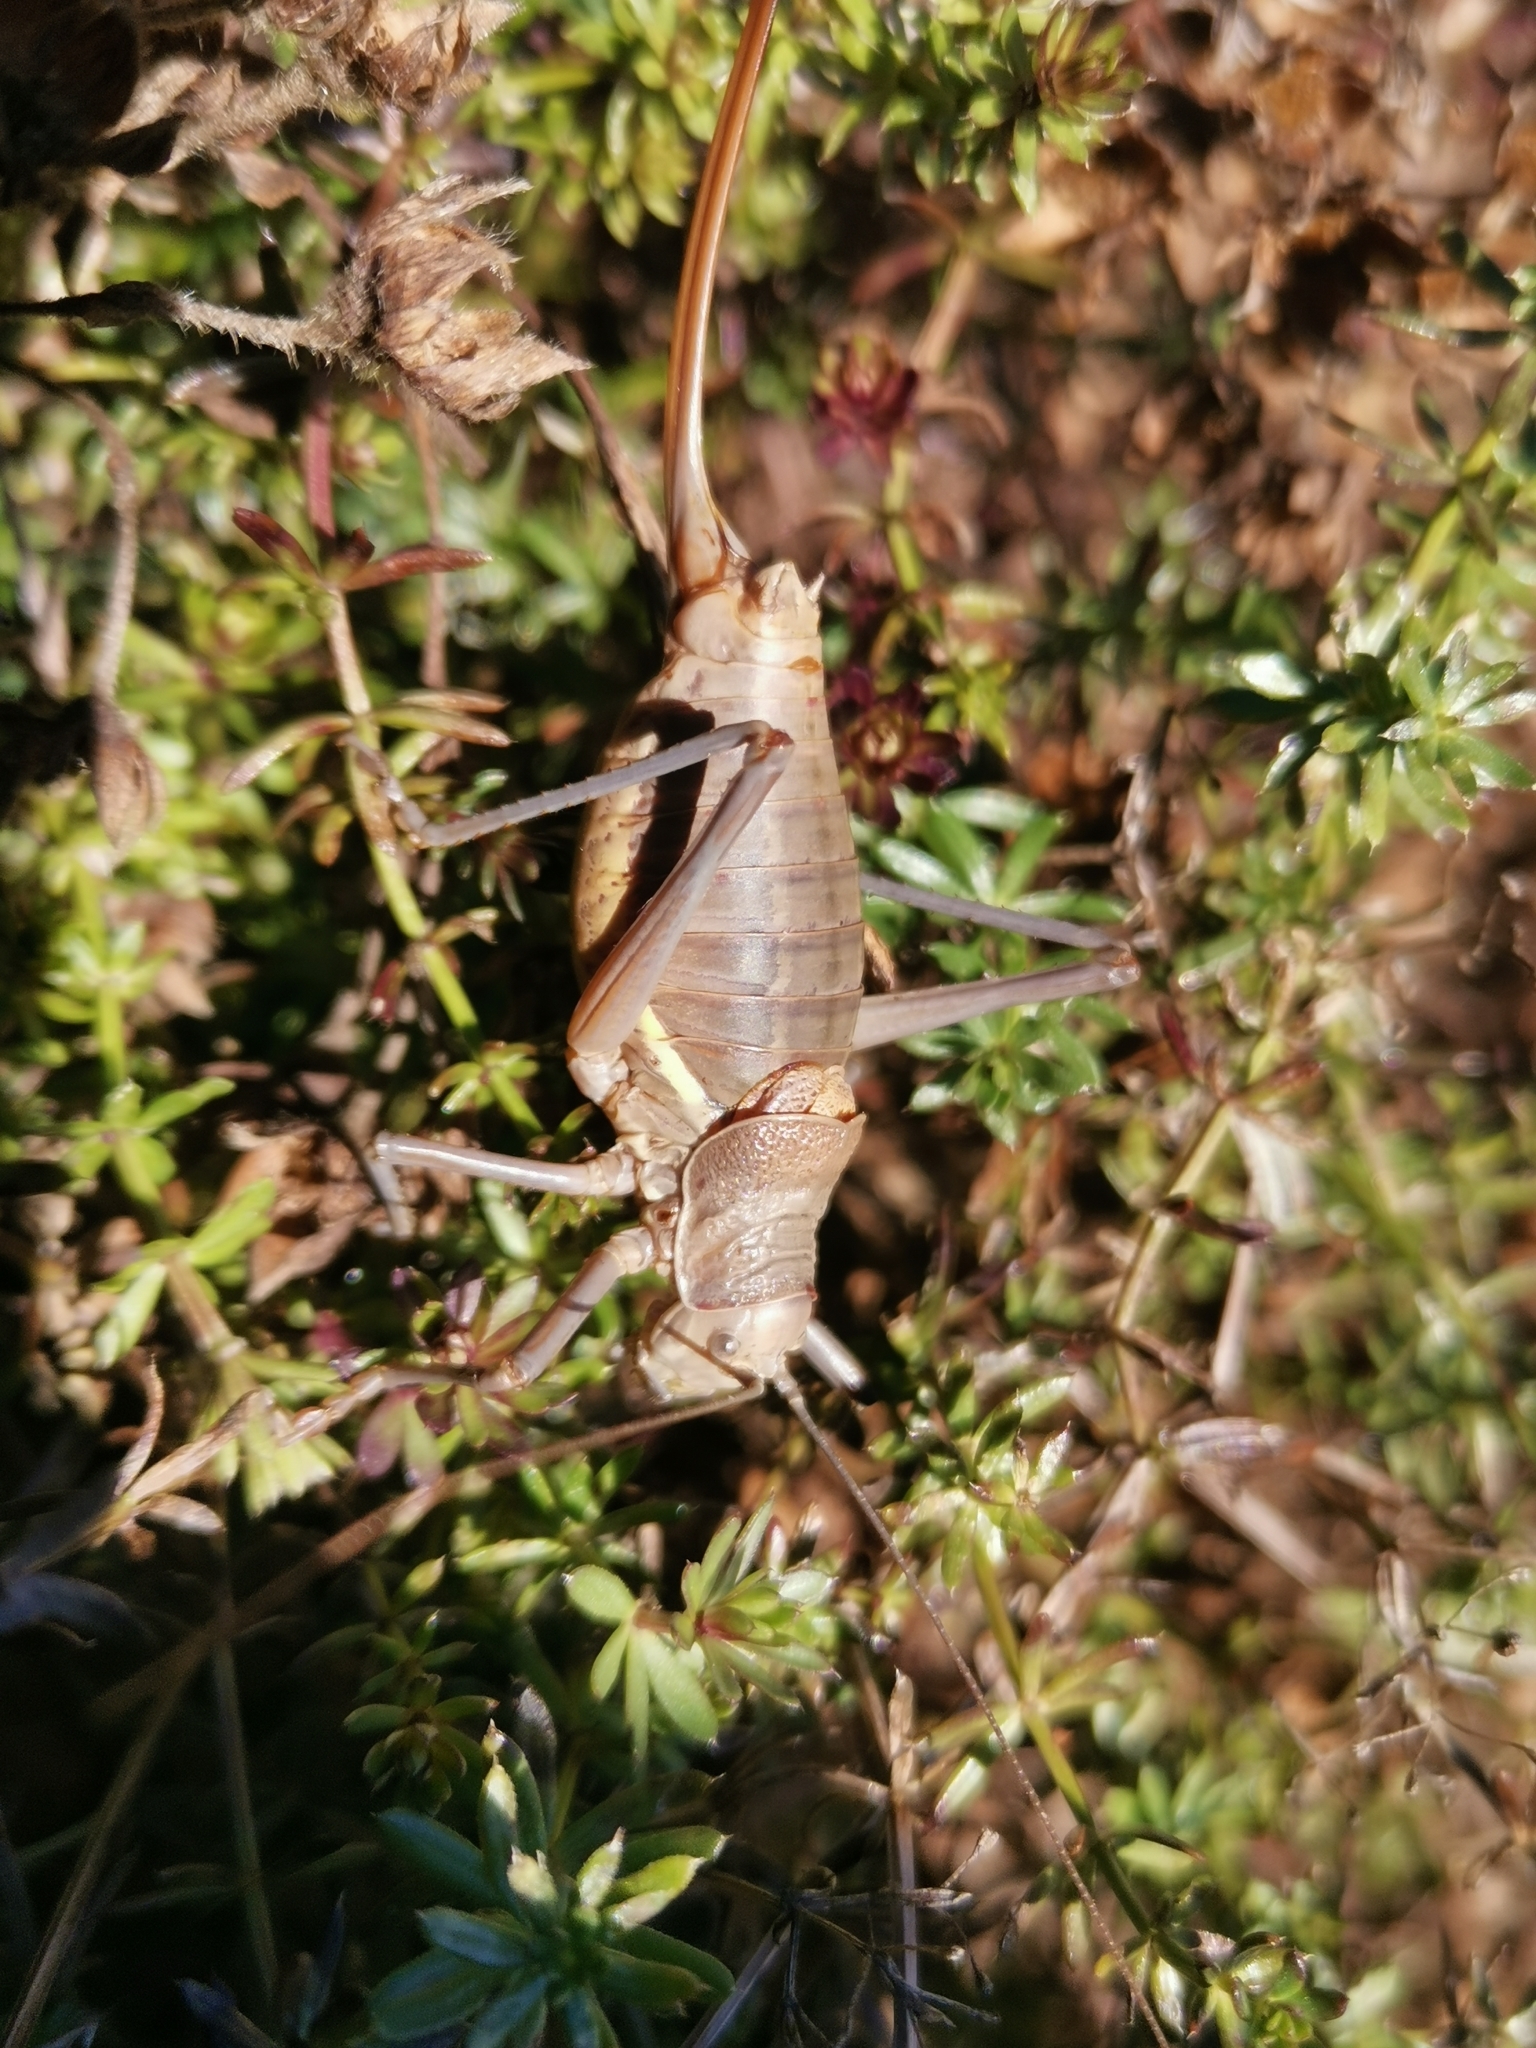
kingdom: Animalia
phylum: Arthropoda
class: Insecta
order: Orthoptera
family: Tettigoniidae
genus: Ephippiger
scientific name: Ephippiger terrestris
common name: Alpine saddle-backed bush-cricket
